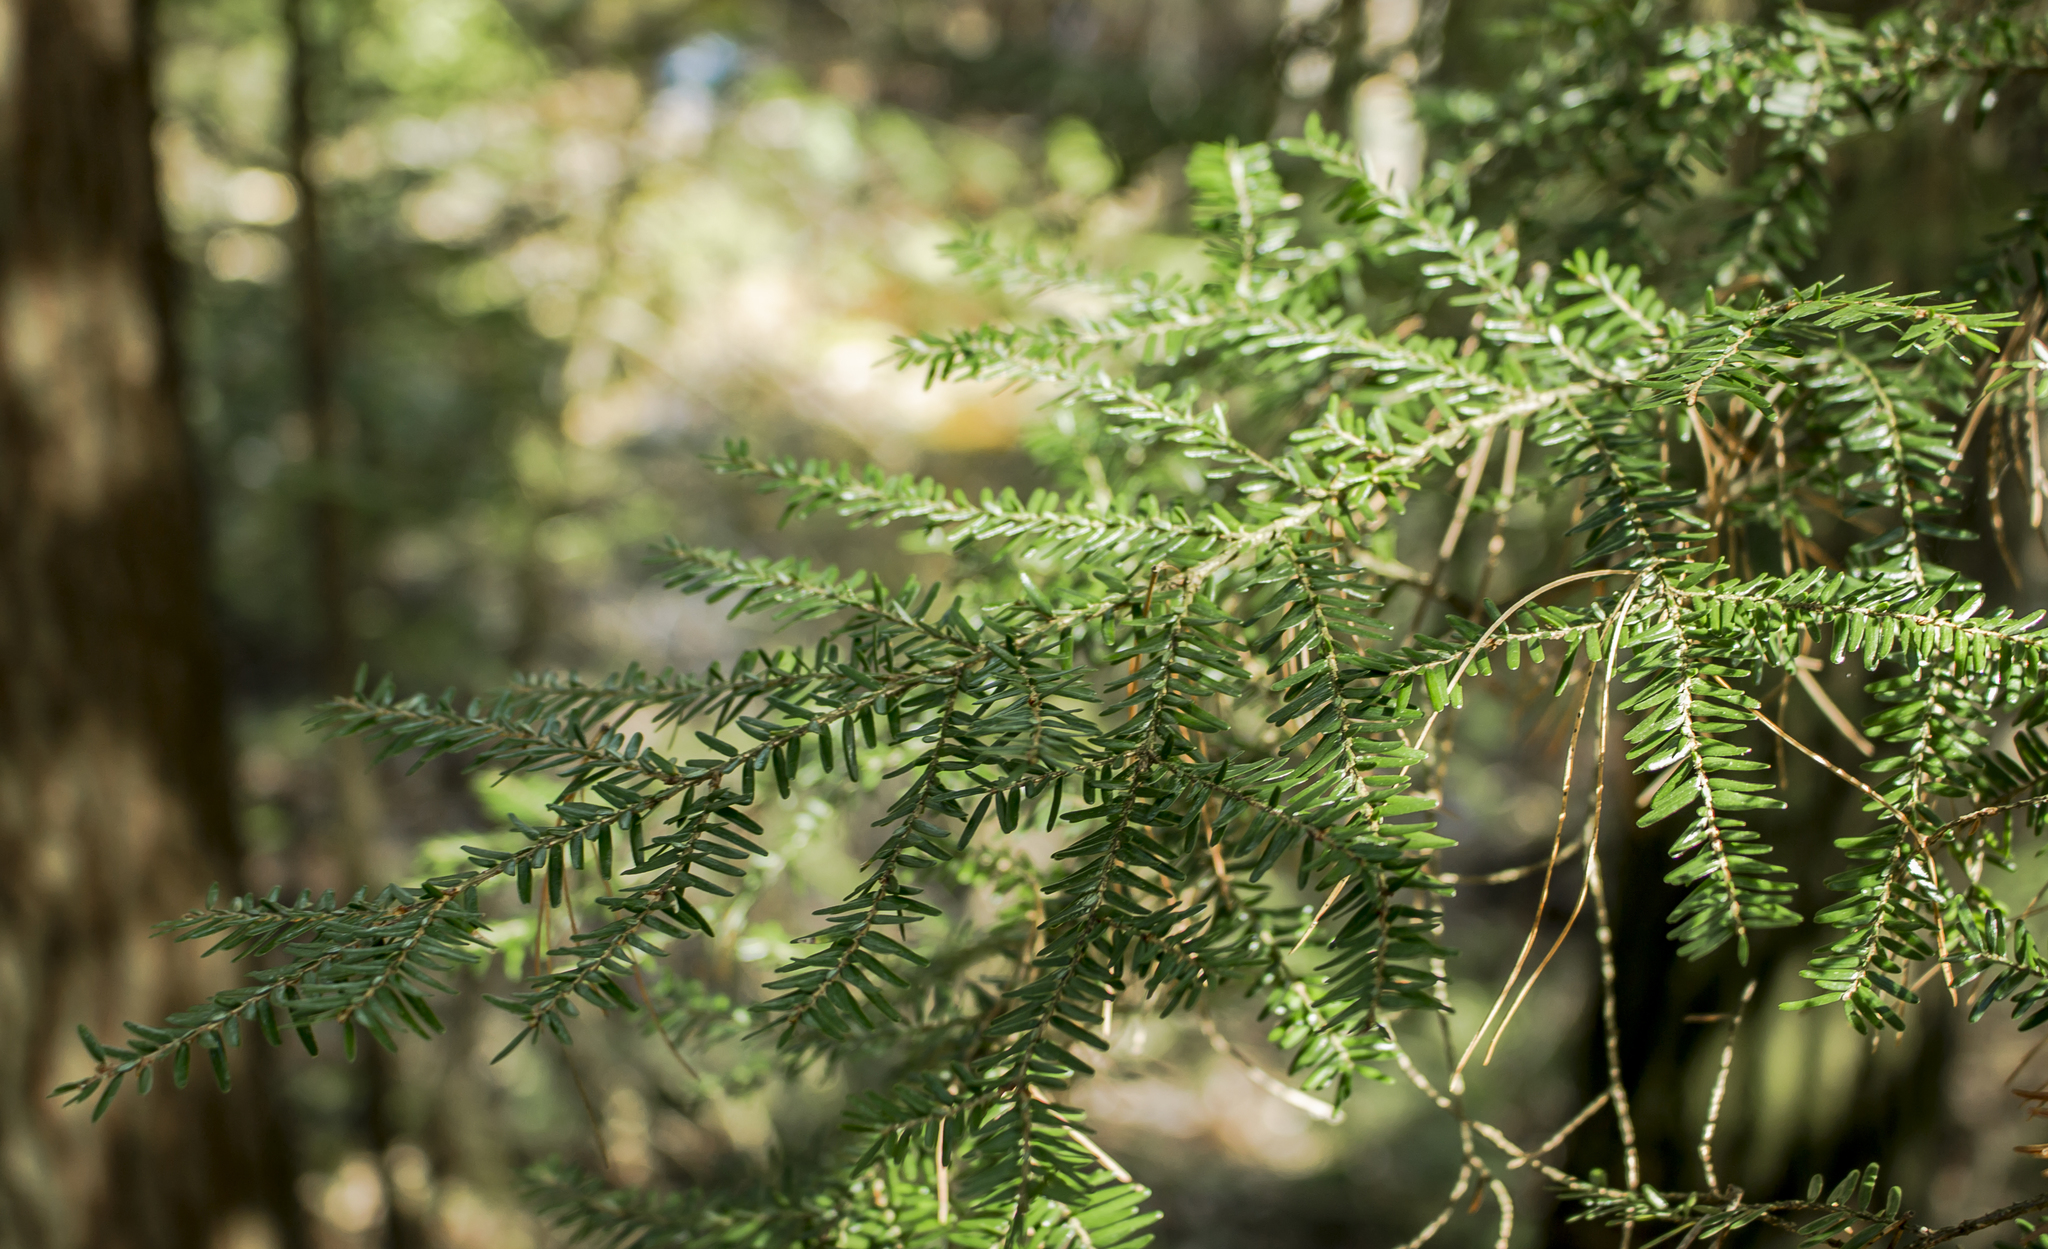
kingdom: Plantae
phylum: Tracheophyta
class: Pinopsida
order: Pinales
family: Pinaceae
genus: Tsuga
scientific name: Tsuga canadensis
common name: Eastern hemlock
